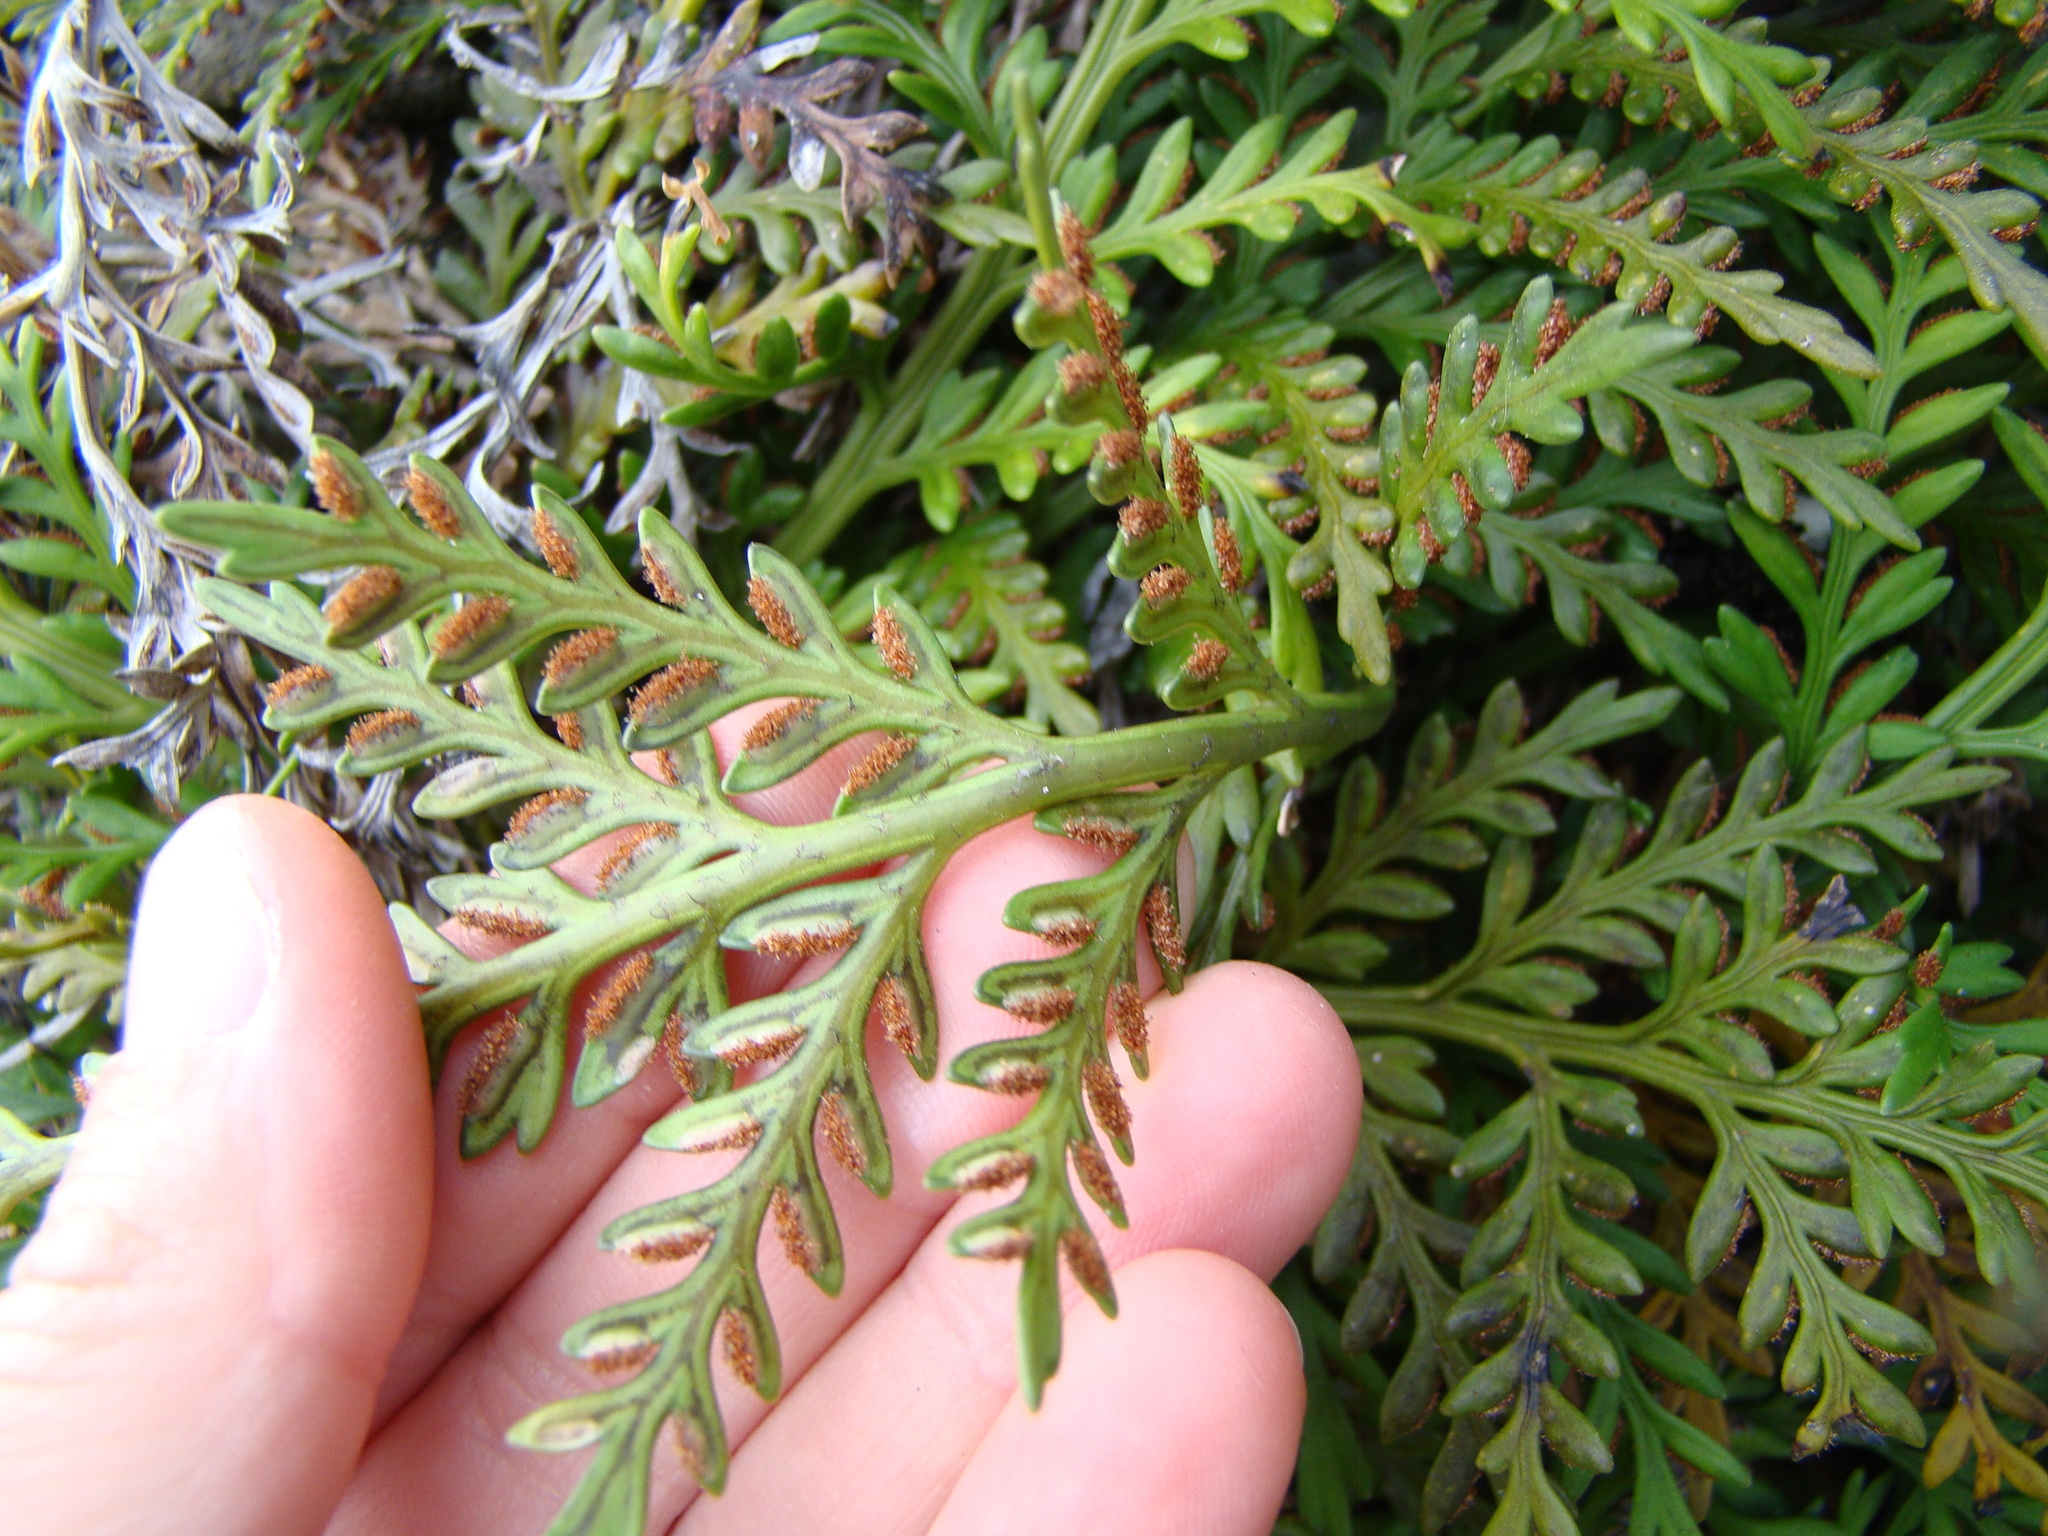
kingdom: Plantae
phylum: Tracheophyta
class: Polypodiopsida
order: Polypodiales
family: Aspleniaceae
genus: Asplenium
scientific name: Asplenium appendiculatum
